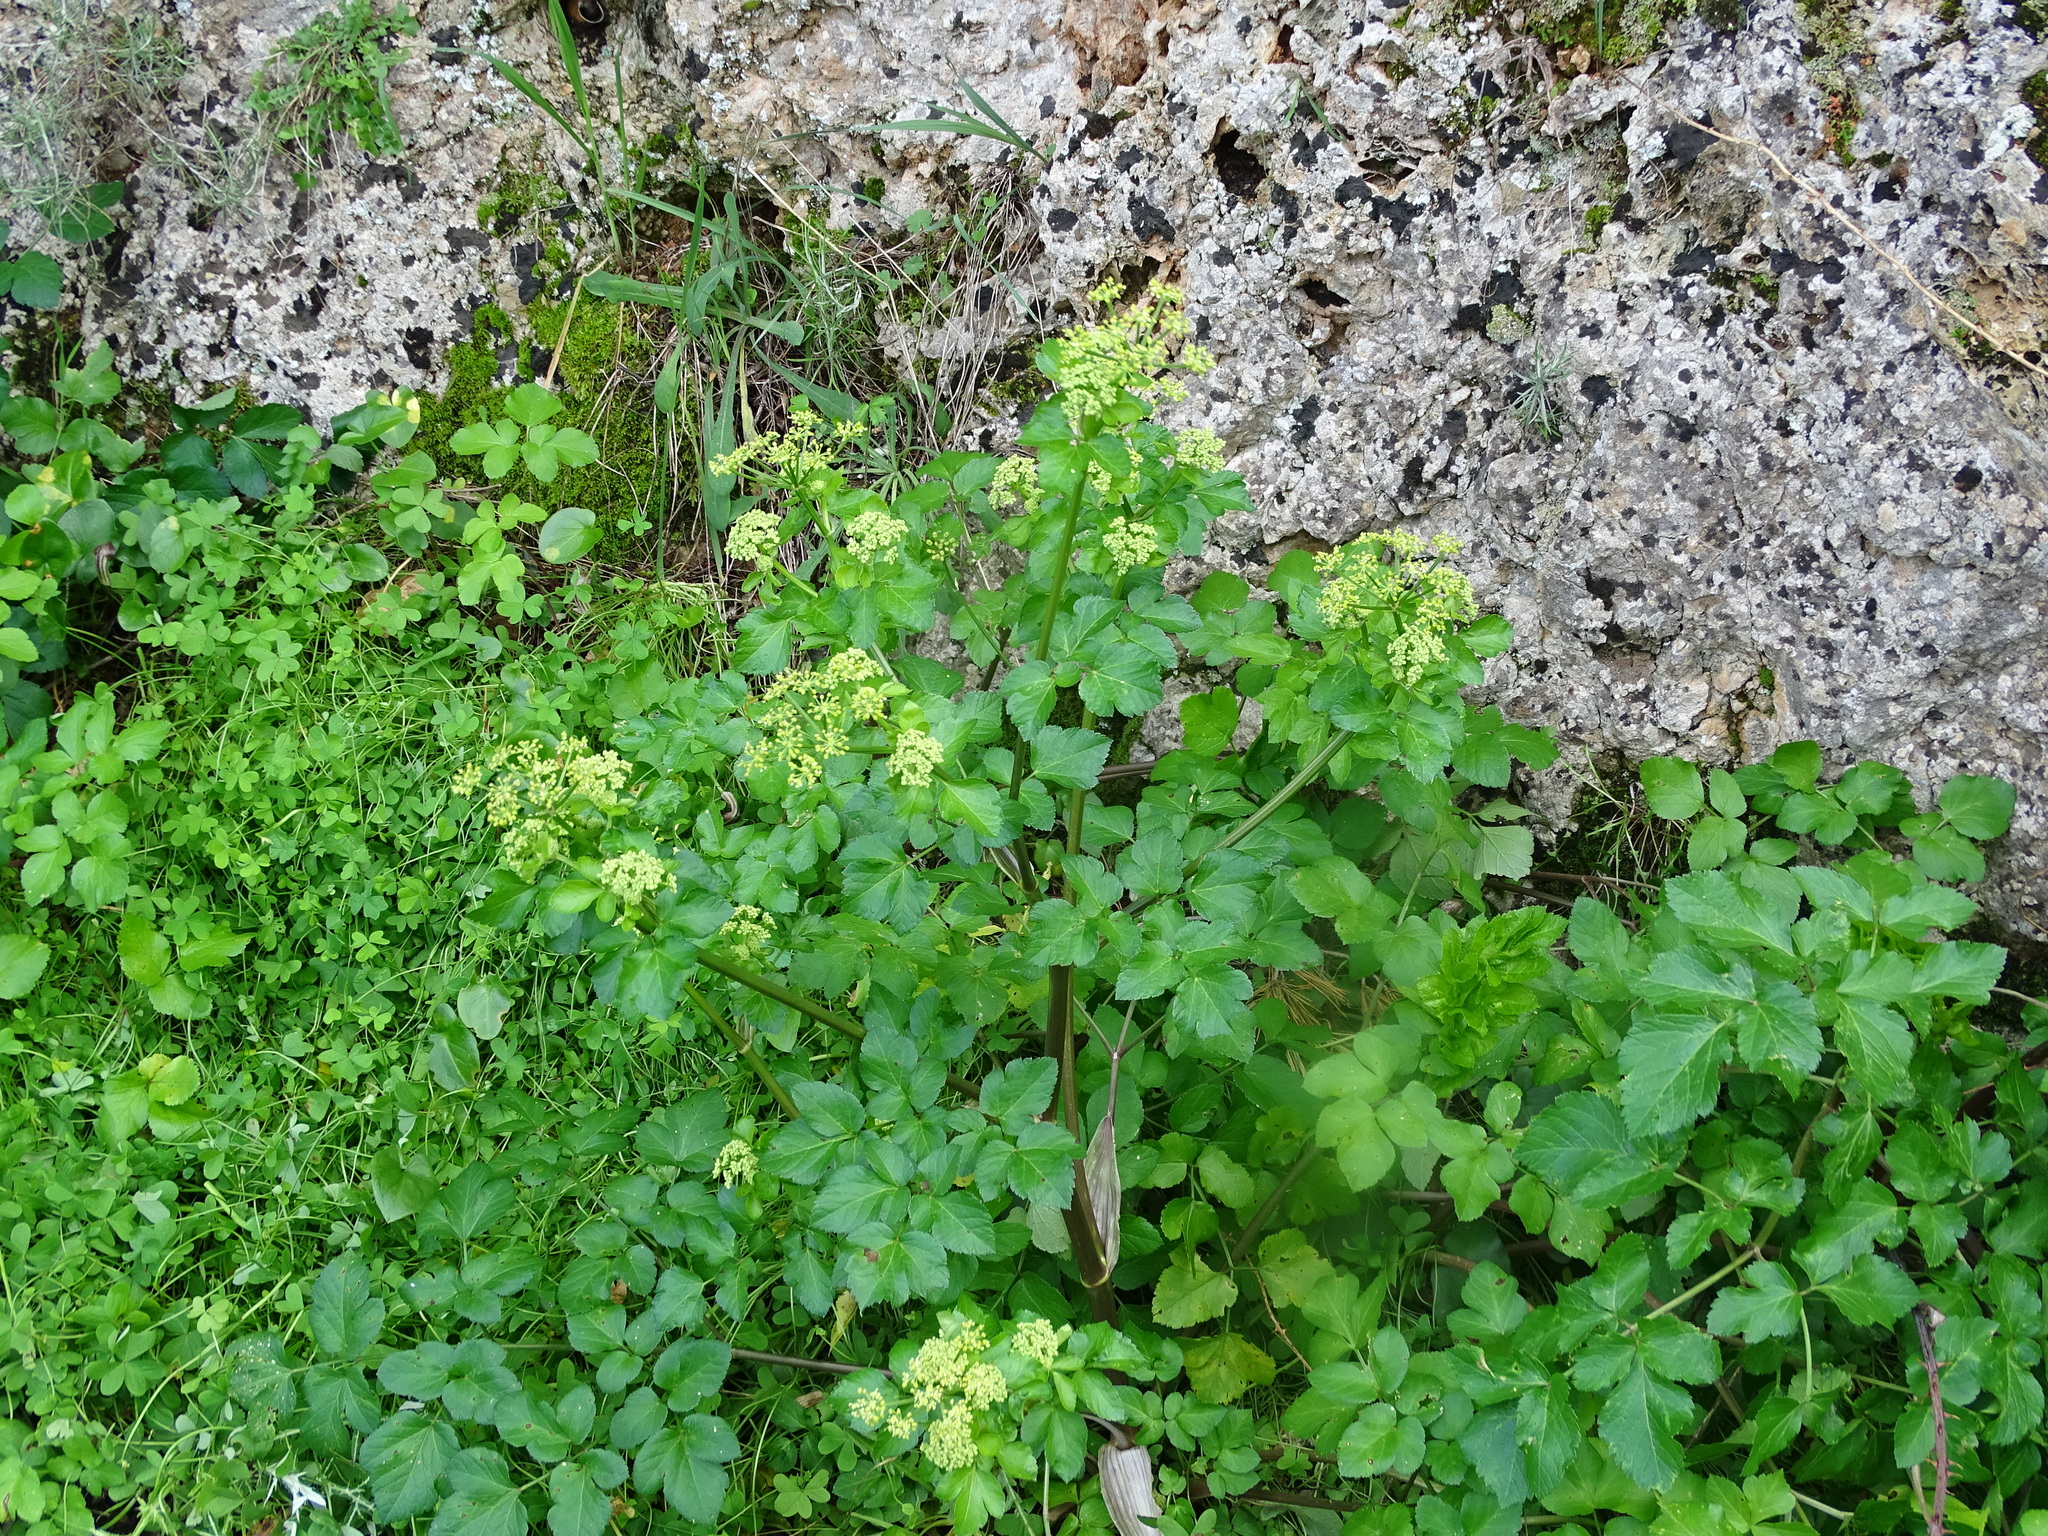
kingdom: Plantae
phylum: Tracheophyta
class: Magnoliopsida
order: Apiales
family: Apiaceae
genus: Smyrnium
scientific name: Smyrnium olusatrum
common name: Alexanders
